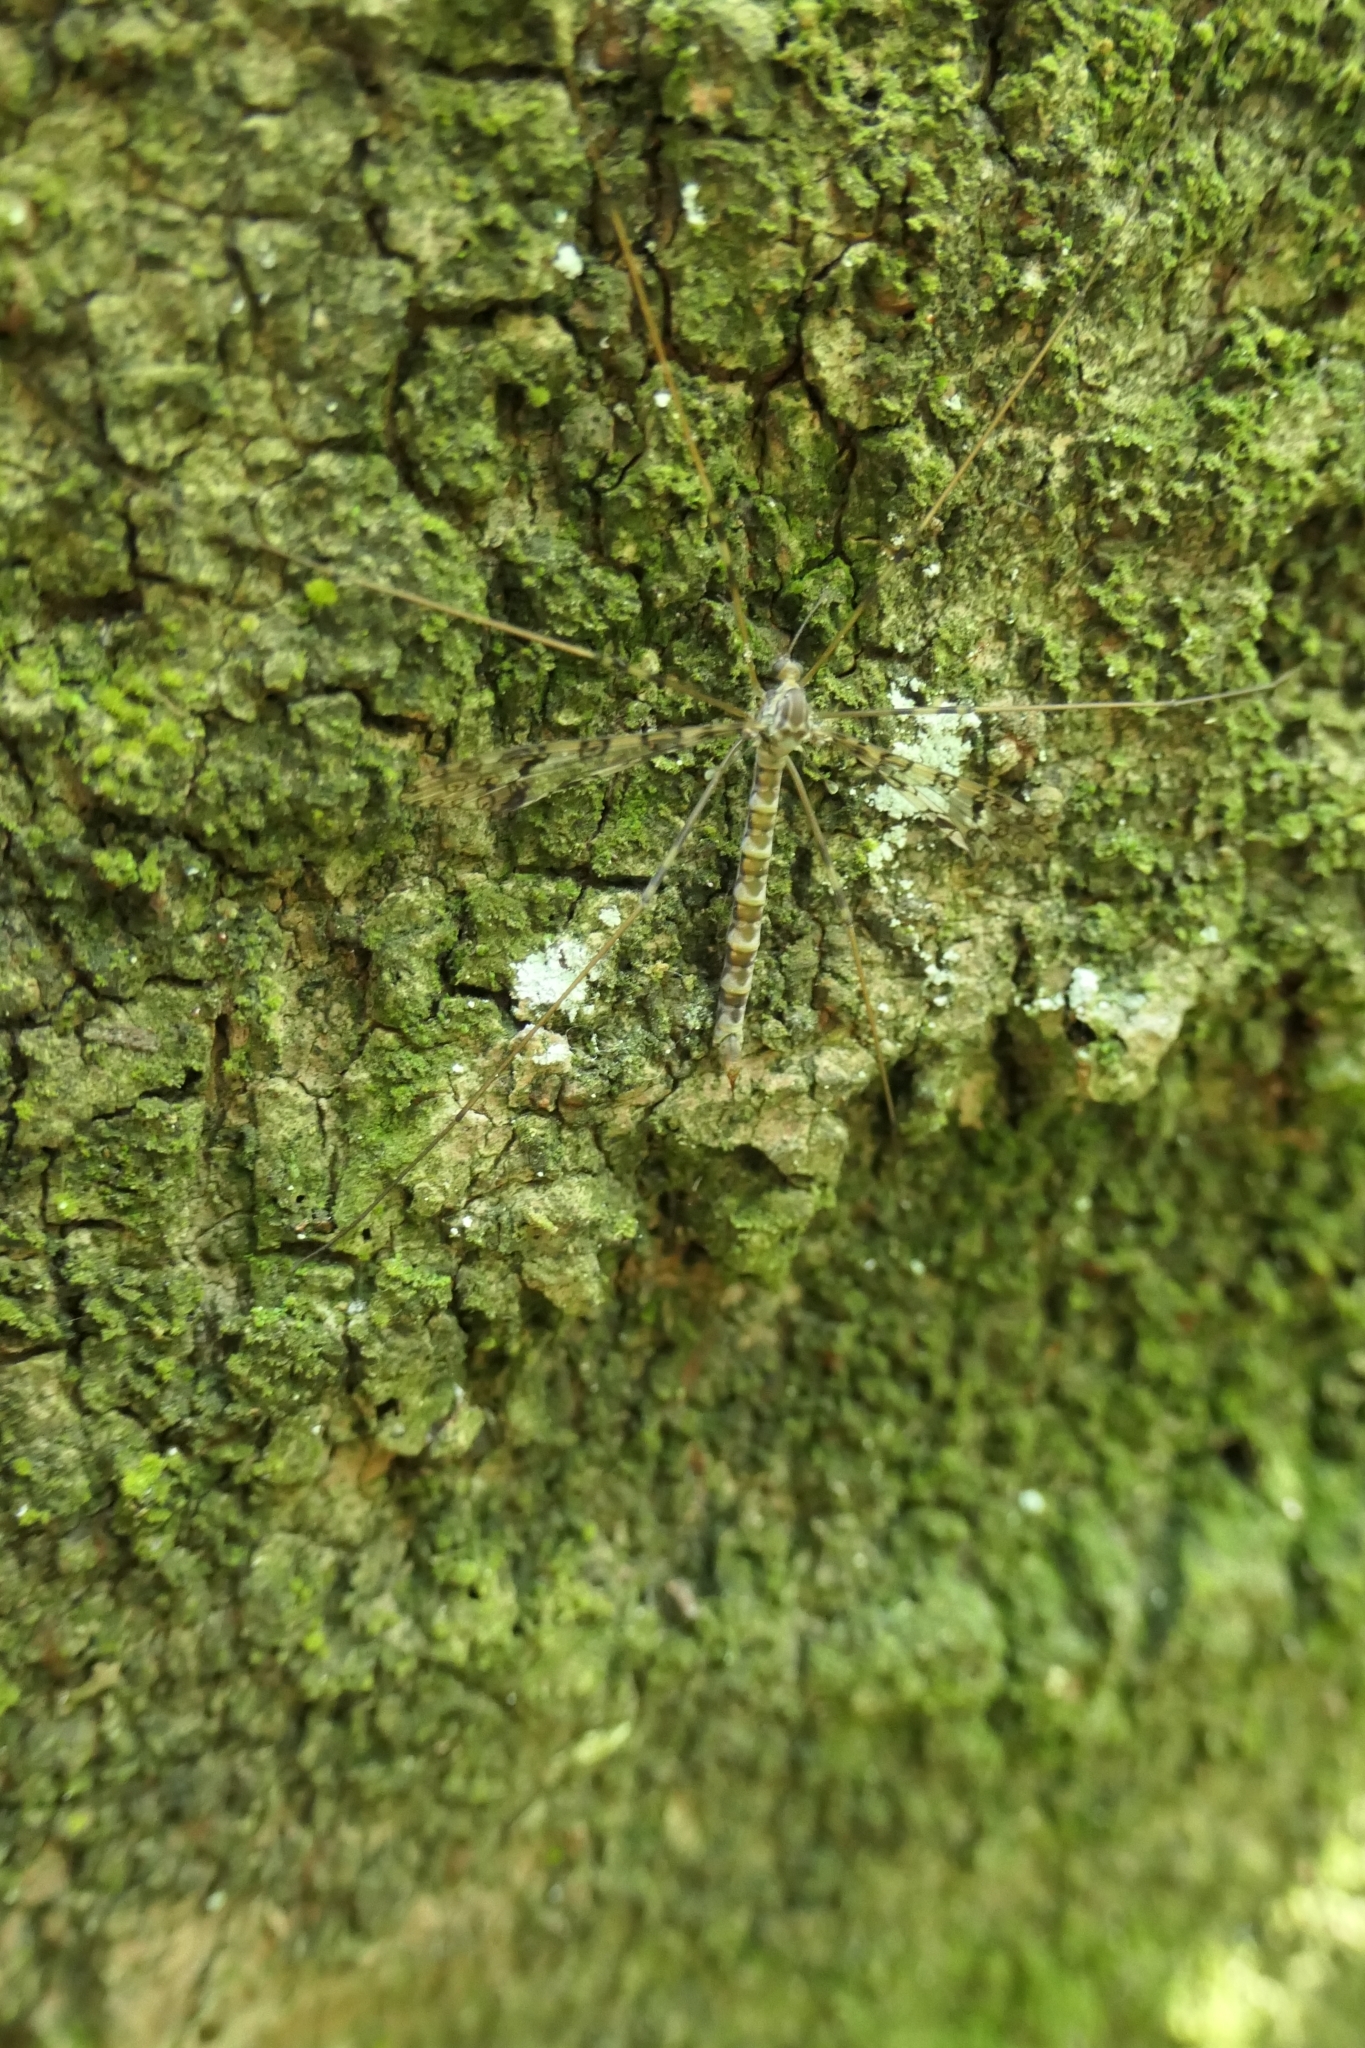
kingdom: Animalia
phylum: Arthropoda
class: Insecta
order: Diptera
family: Limoniidae
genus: Austrolimnophila
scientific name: Austrolimnophila argus
